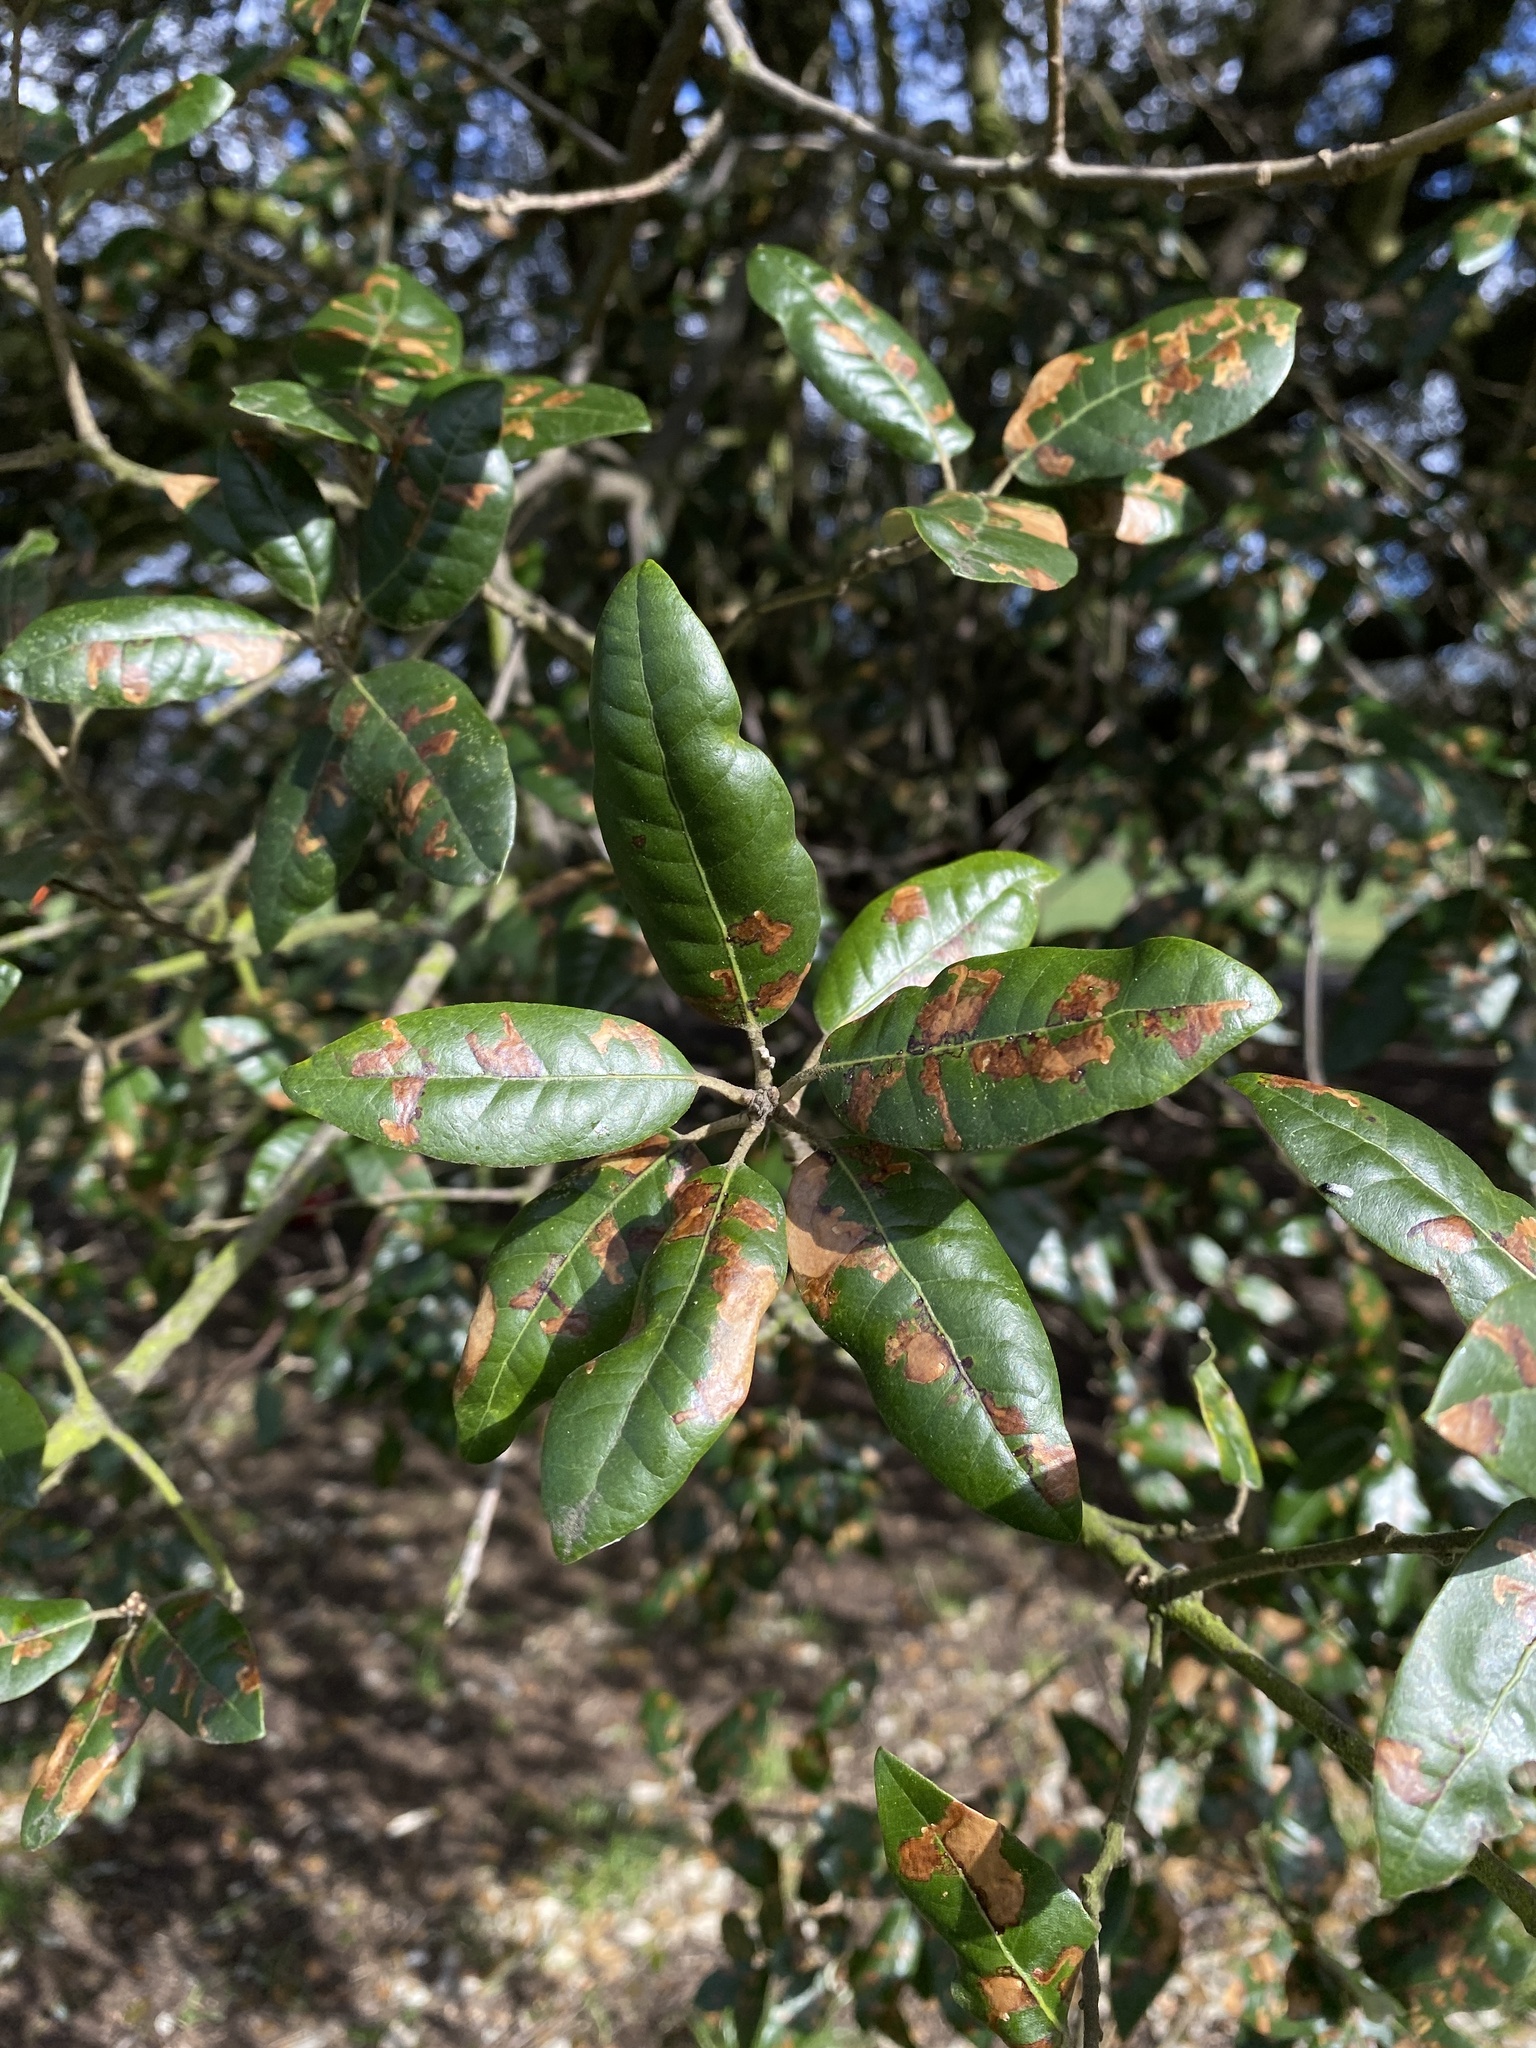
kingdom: Plantae
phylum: Tracheophyta
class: Magnoliopsida
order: Fagales
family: Fagaceae
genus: Quercus
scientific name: Quercus ilex
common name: Evergreen oak
